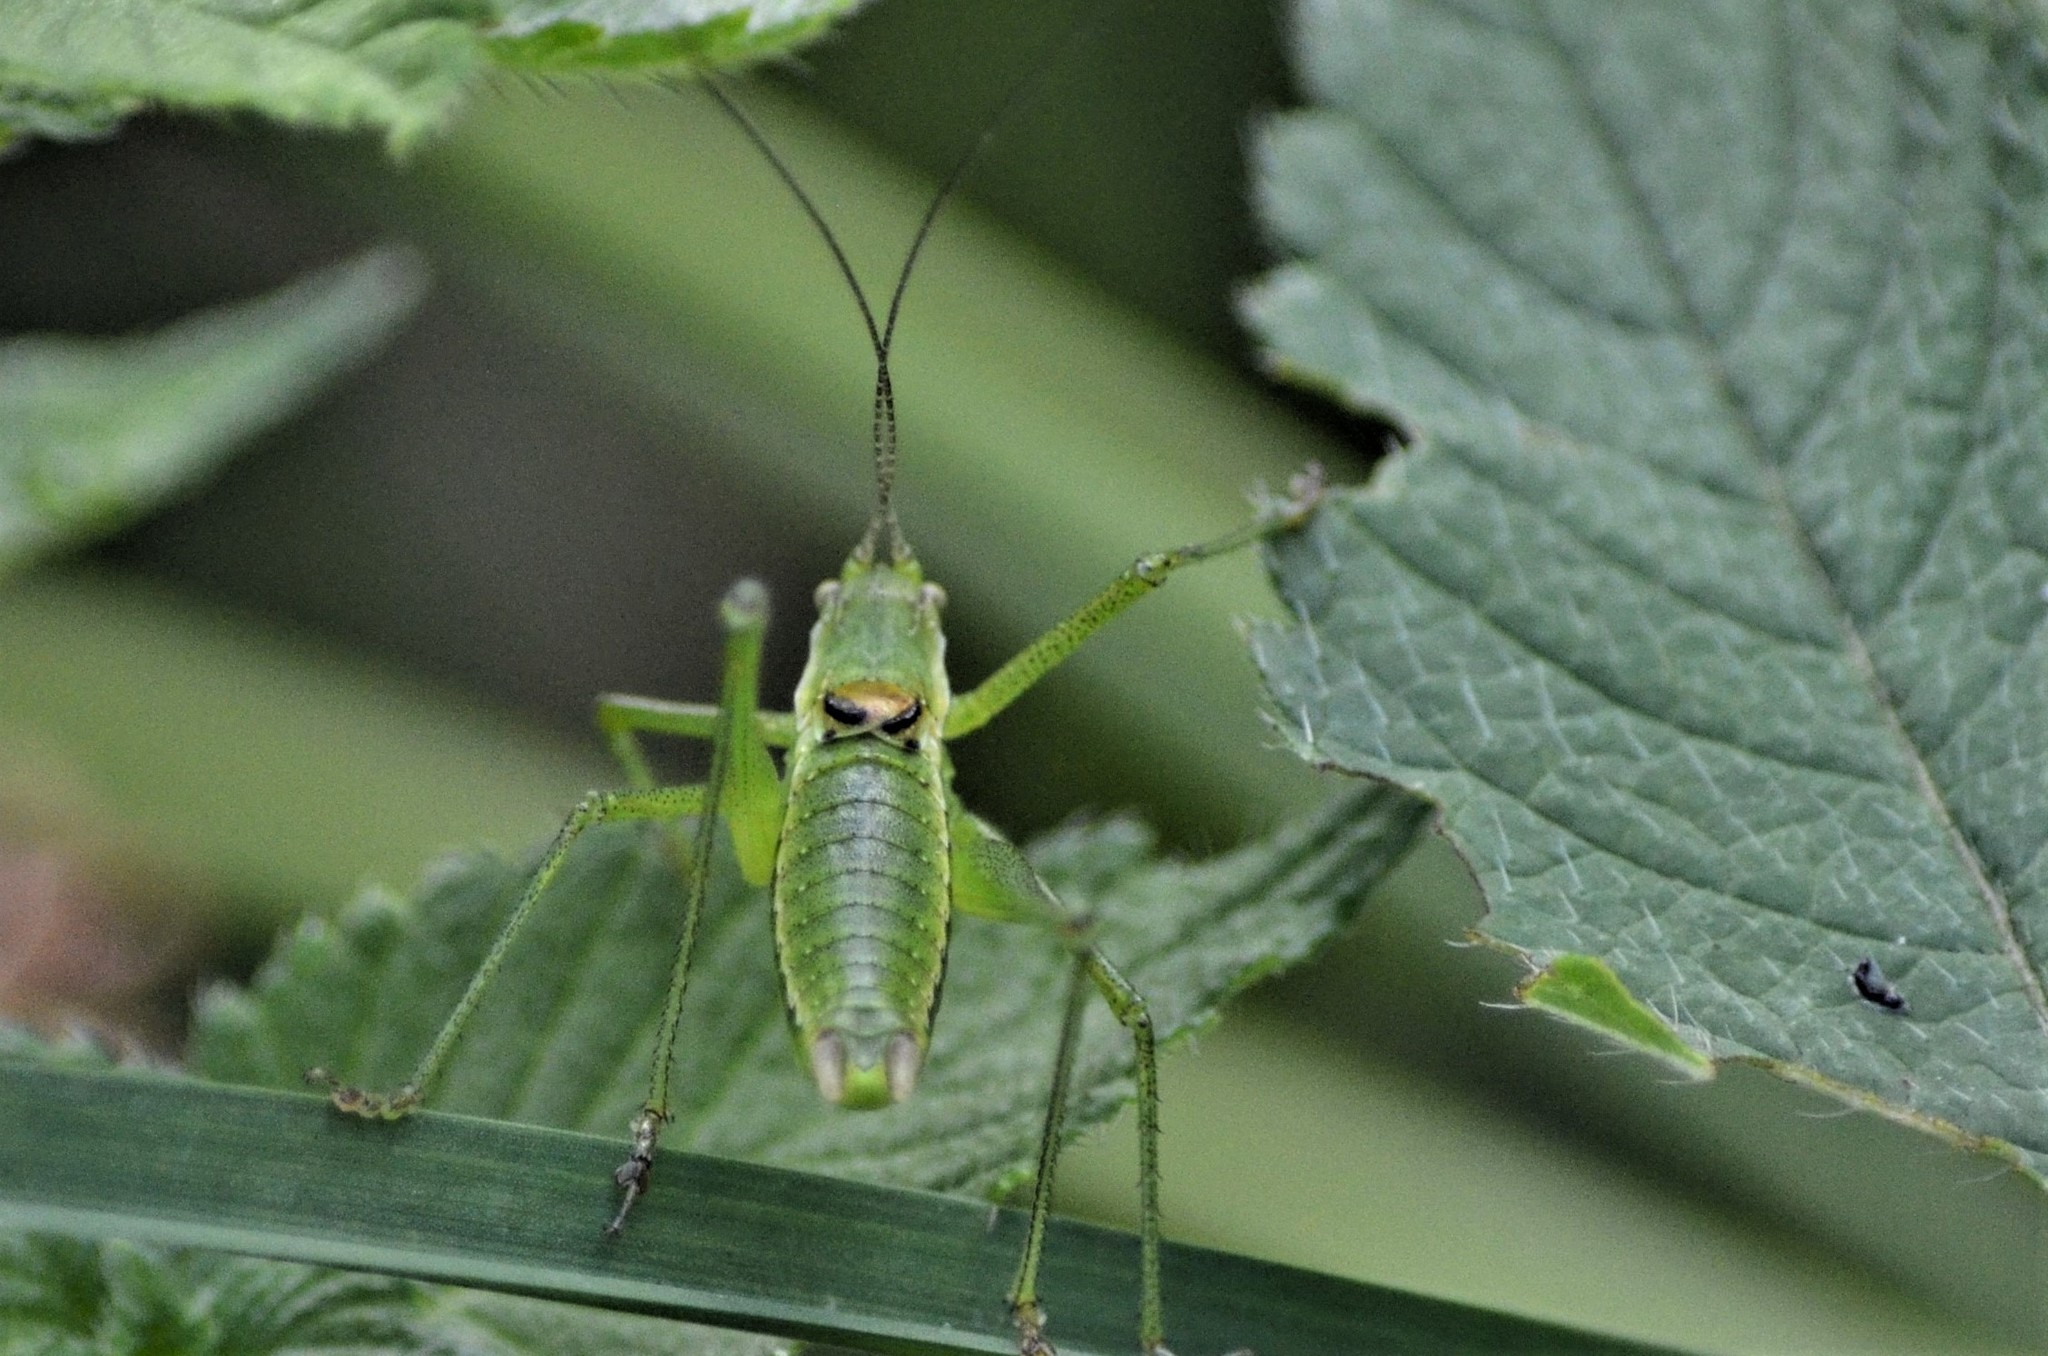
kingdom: Animalia
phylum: Arthropoda
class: Insecta
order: Orthoptera
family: Tettigoniidae
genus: Leptophyes
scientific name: Leptophyes boscii
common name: Balkan speckled bush-cricket
